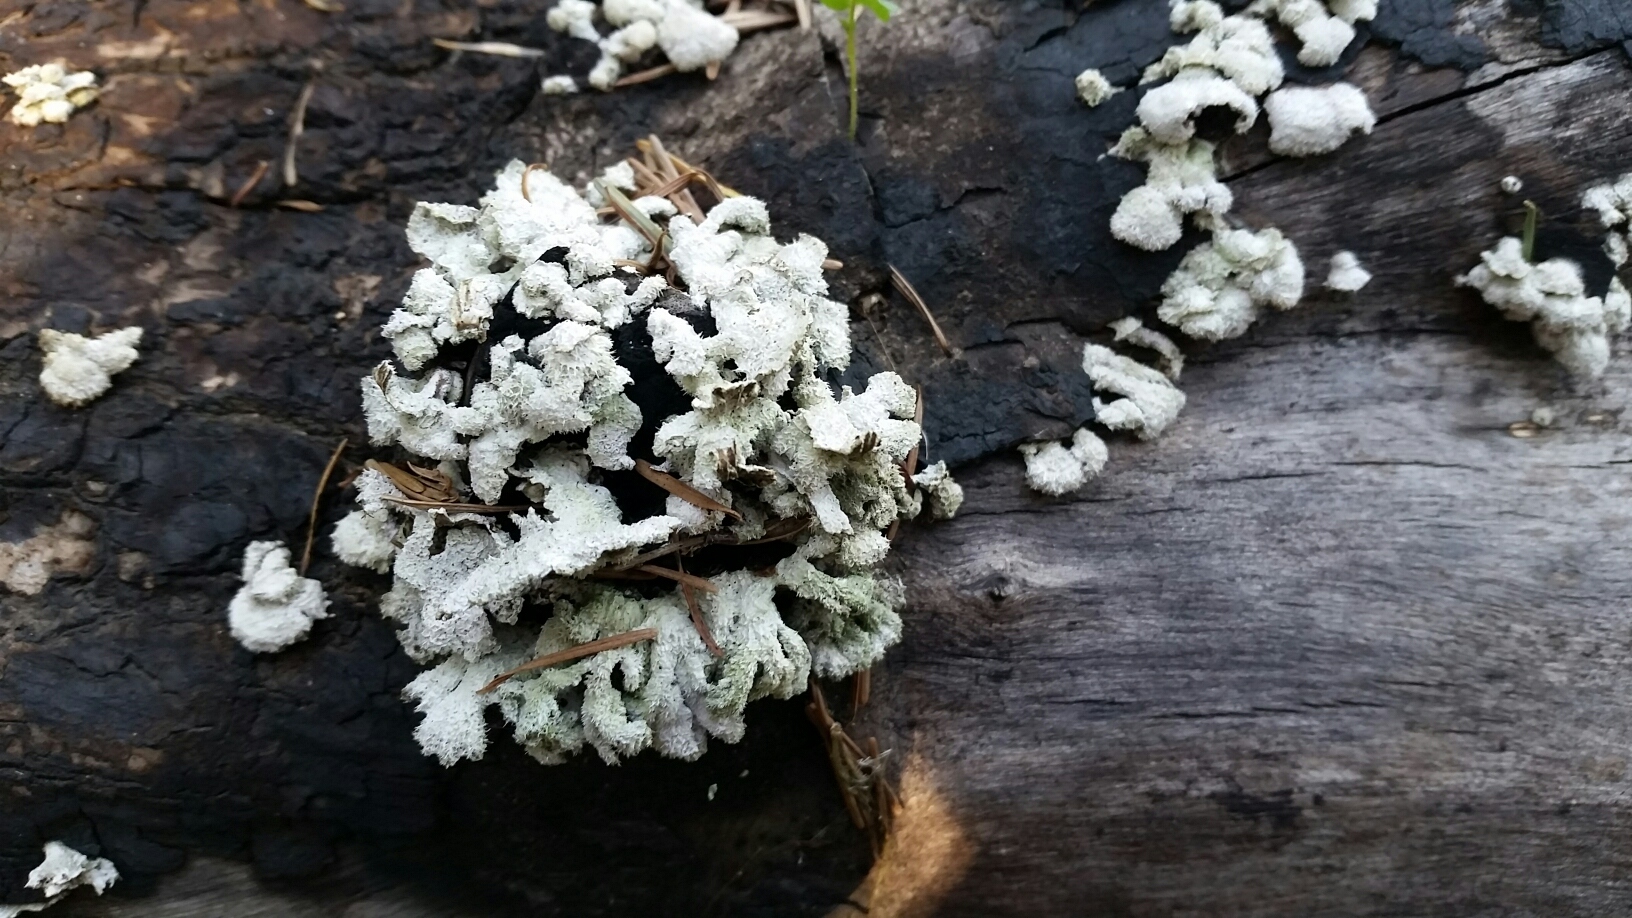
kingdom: Fungi
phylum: Basidiomycota
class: Agaricomycetes
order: Agaricales
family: Schizophyllaceae
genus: Schizophyllum
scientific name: Schizophyllum commune
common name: Common porecrust
